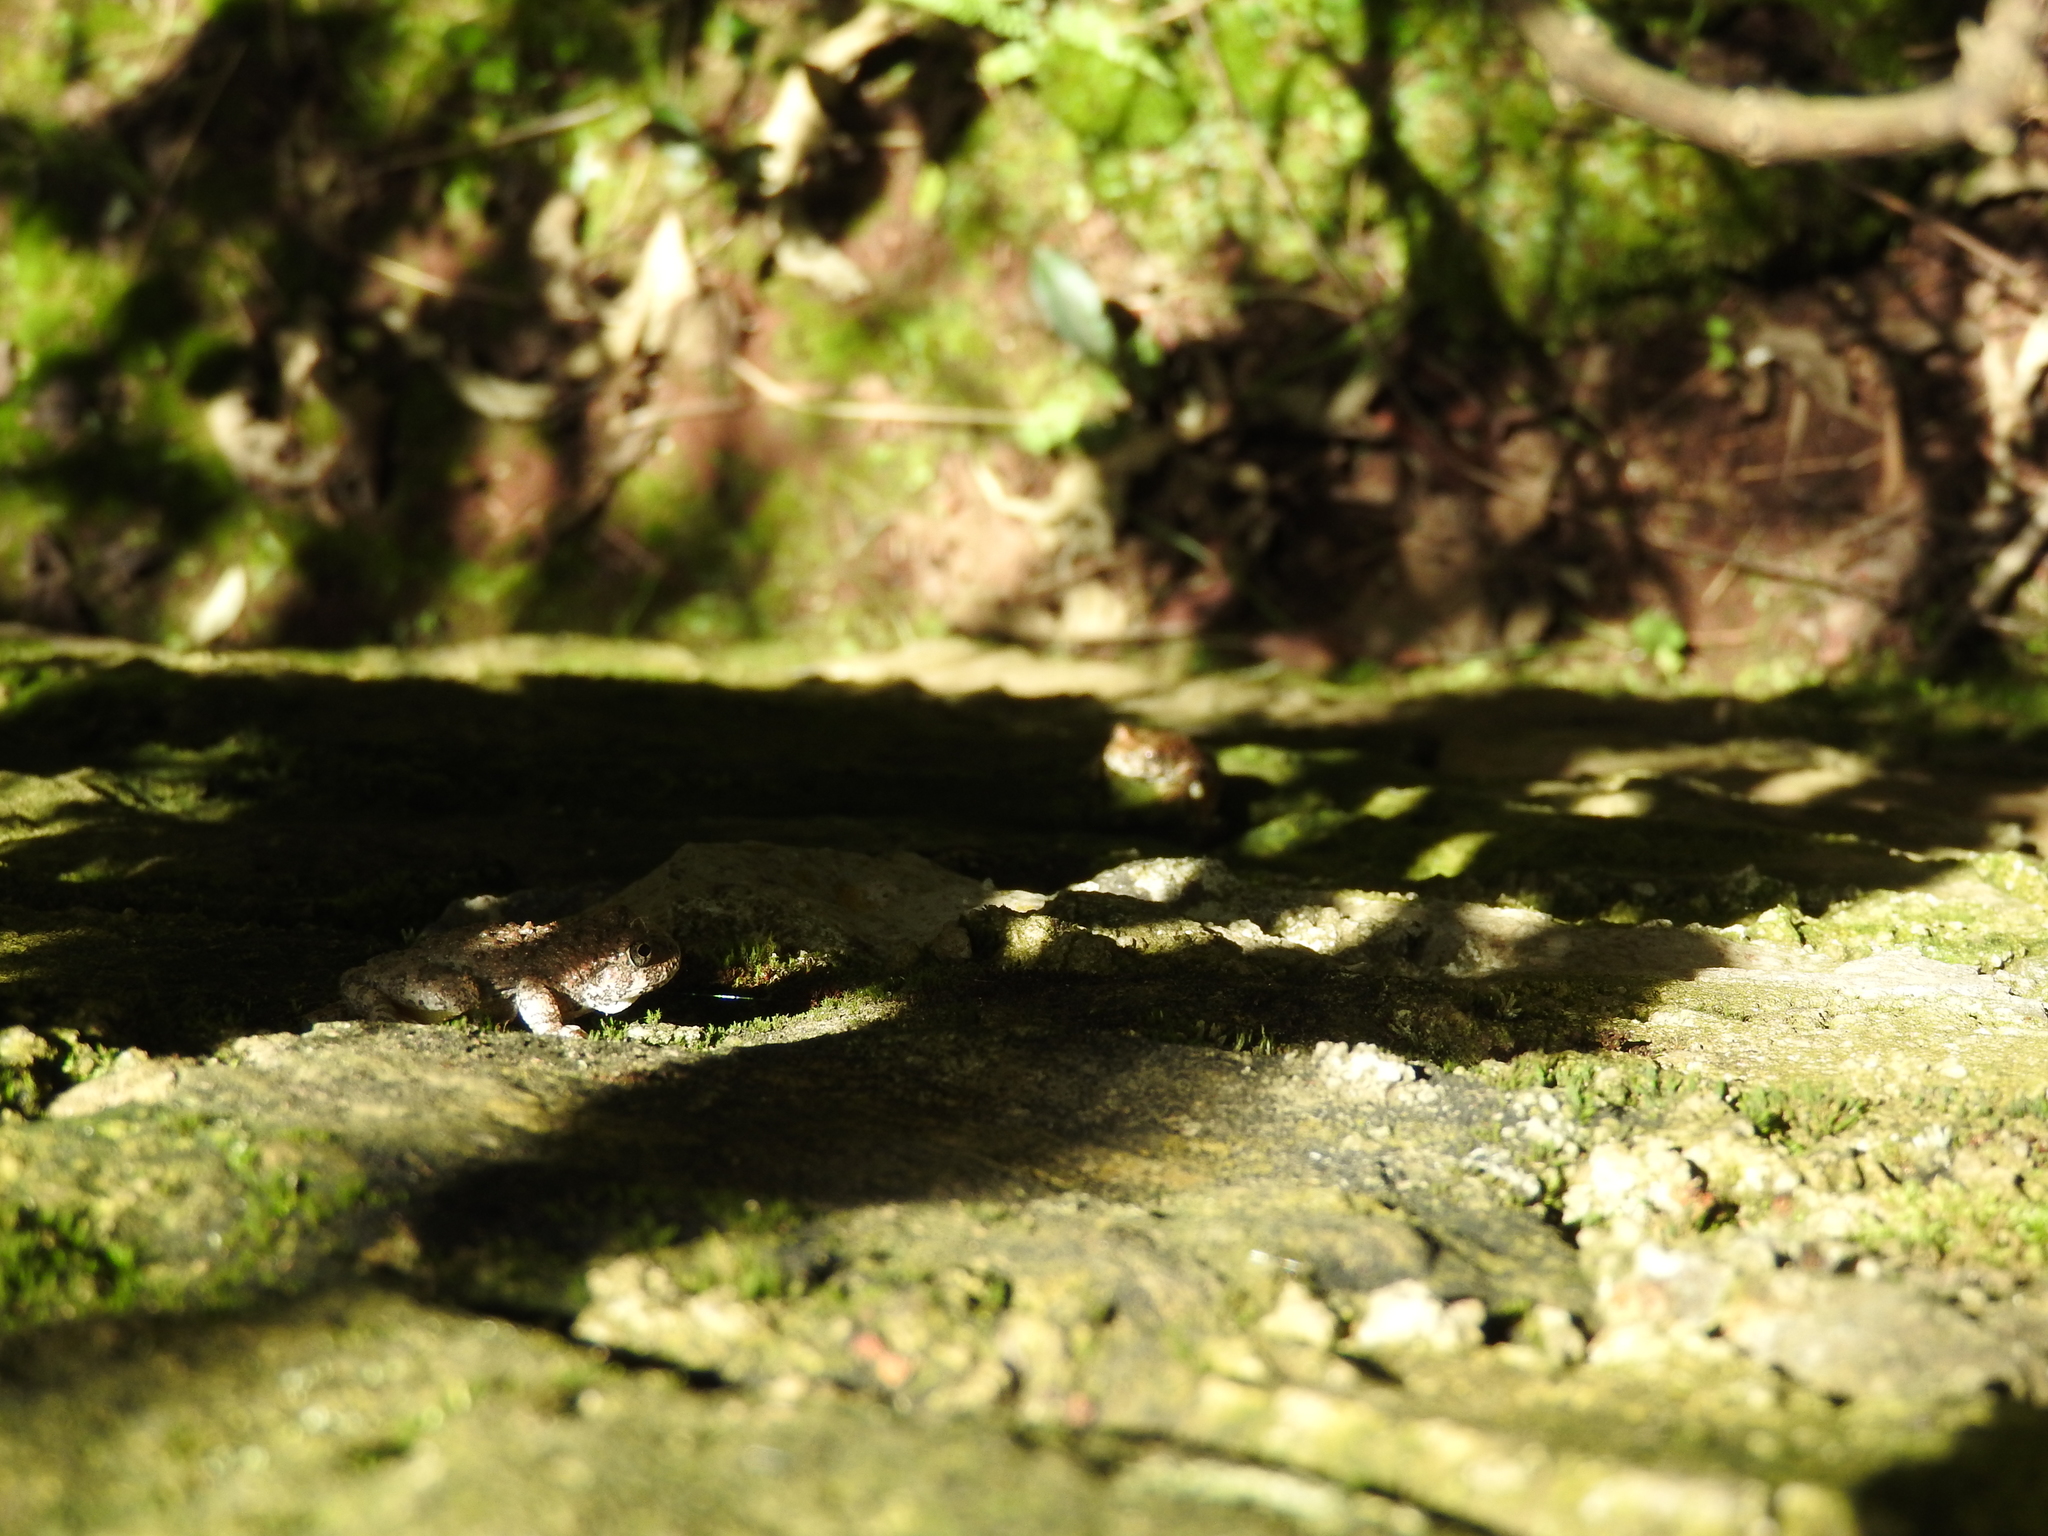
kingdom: Animalia
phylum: Chordata
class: Amphibia
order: Anura
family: Hylidae
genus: Dryophytes
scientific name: Dryophytes arenicolor
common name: Canyon treefrog
